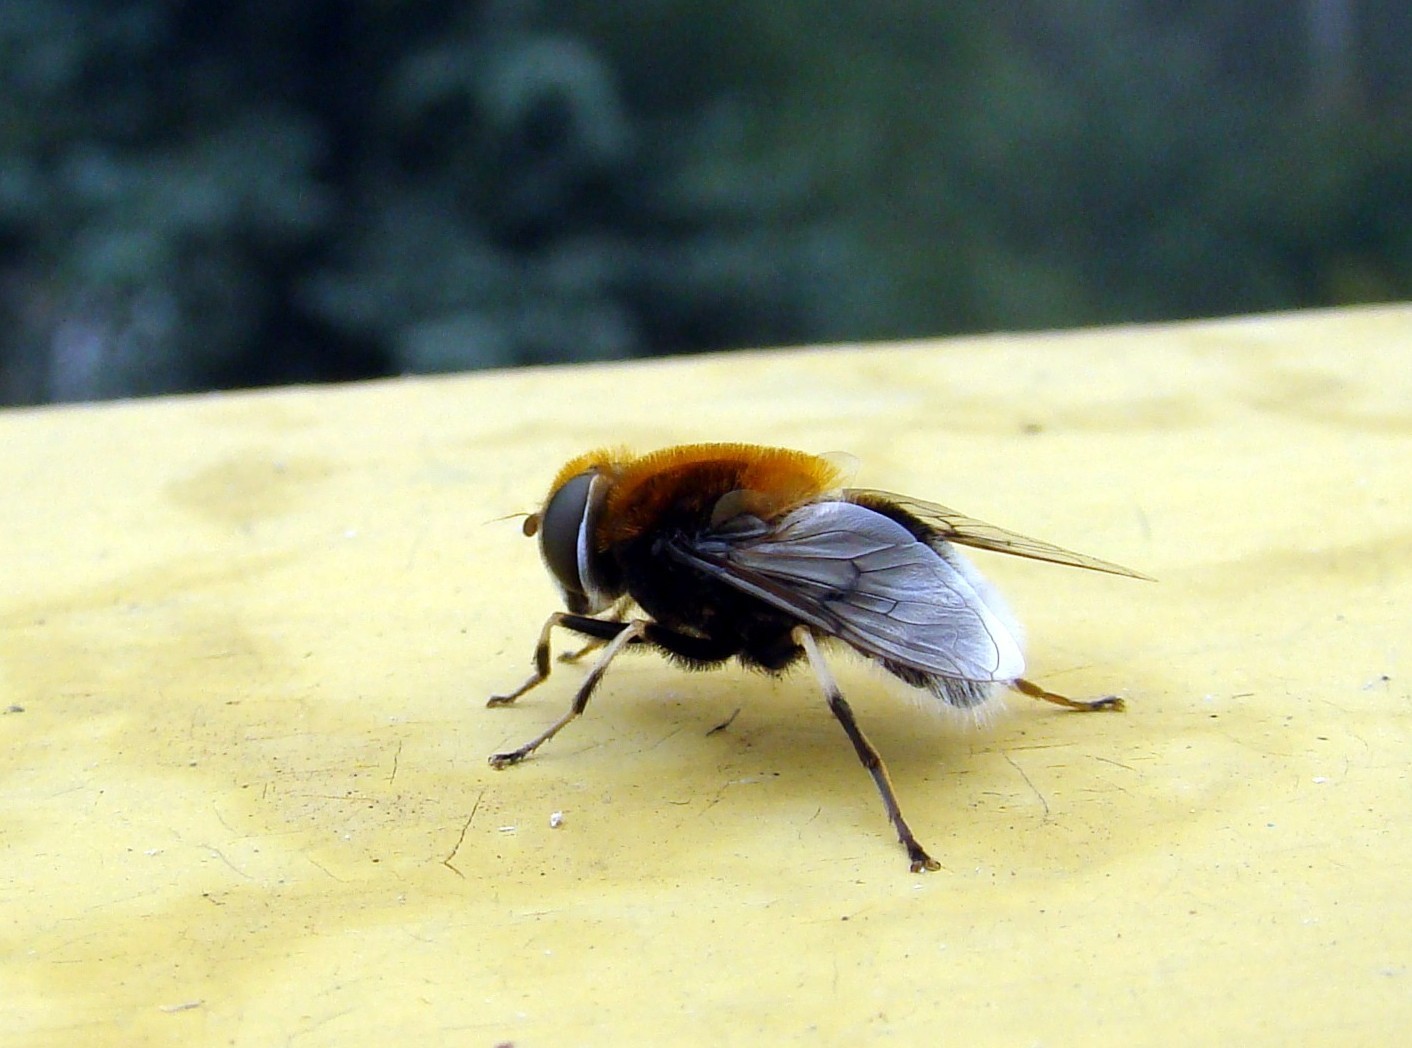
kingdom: Animalia
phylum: Arthropoda
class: Insecta
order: Diptera
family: Syrphidae
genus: Eristalis
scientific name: Eristalis intricaria
